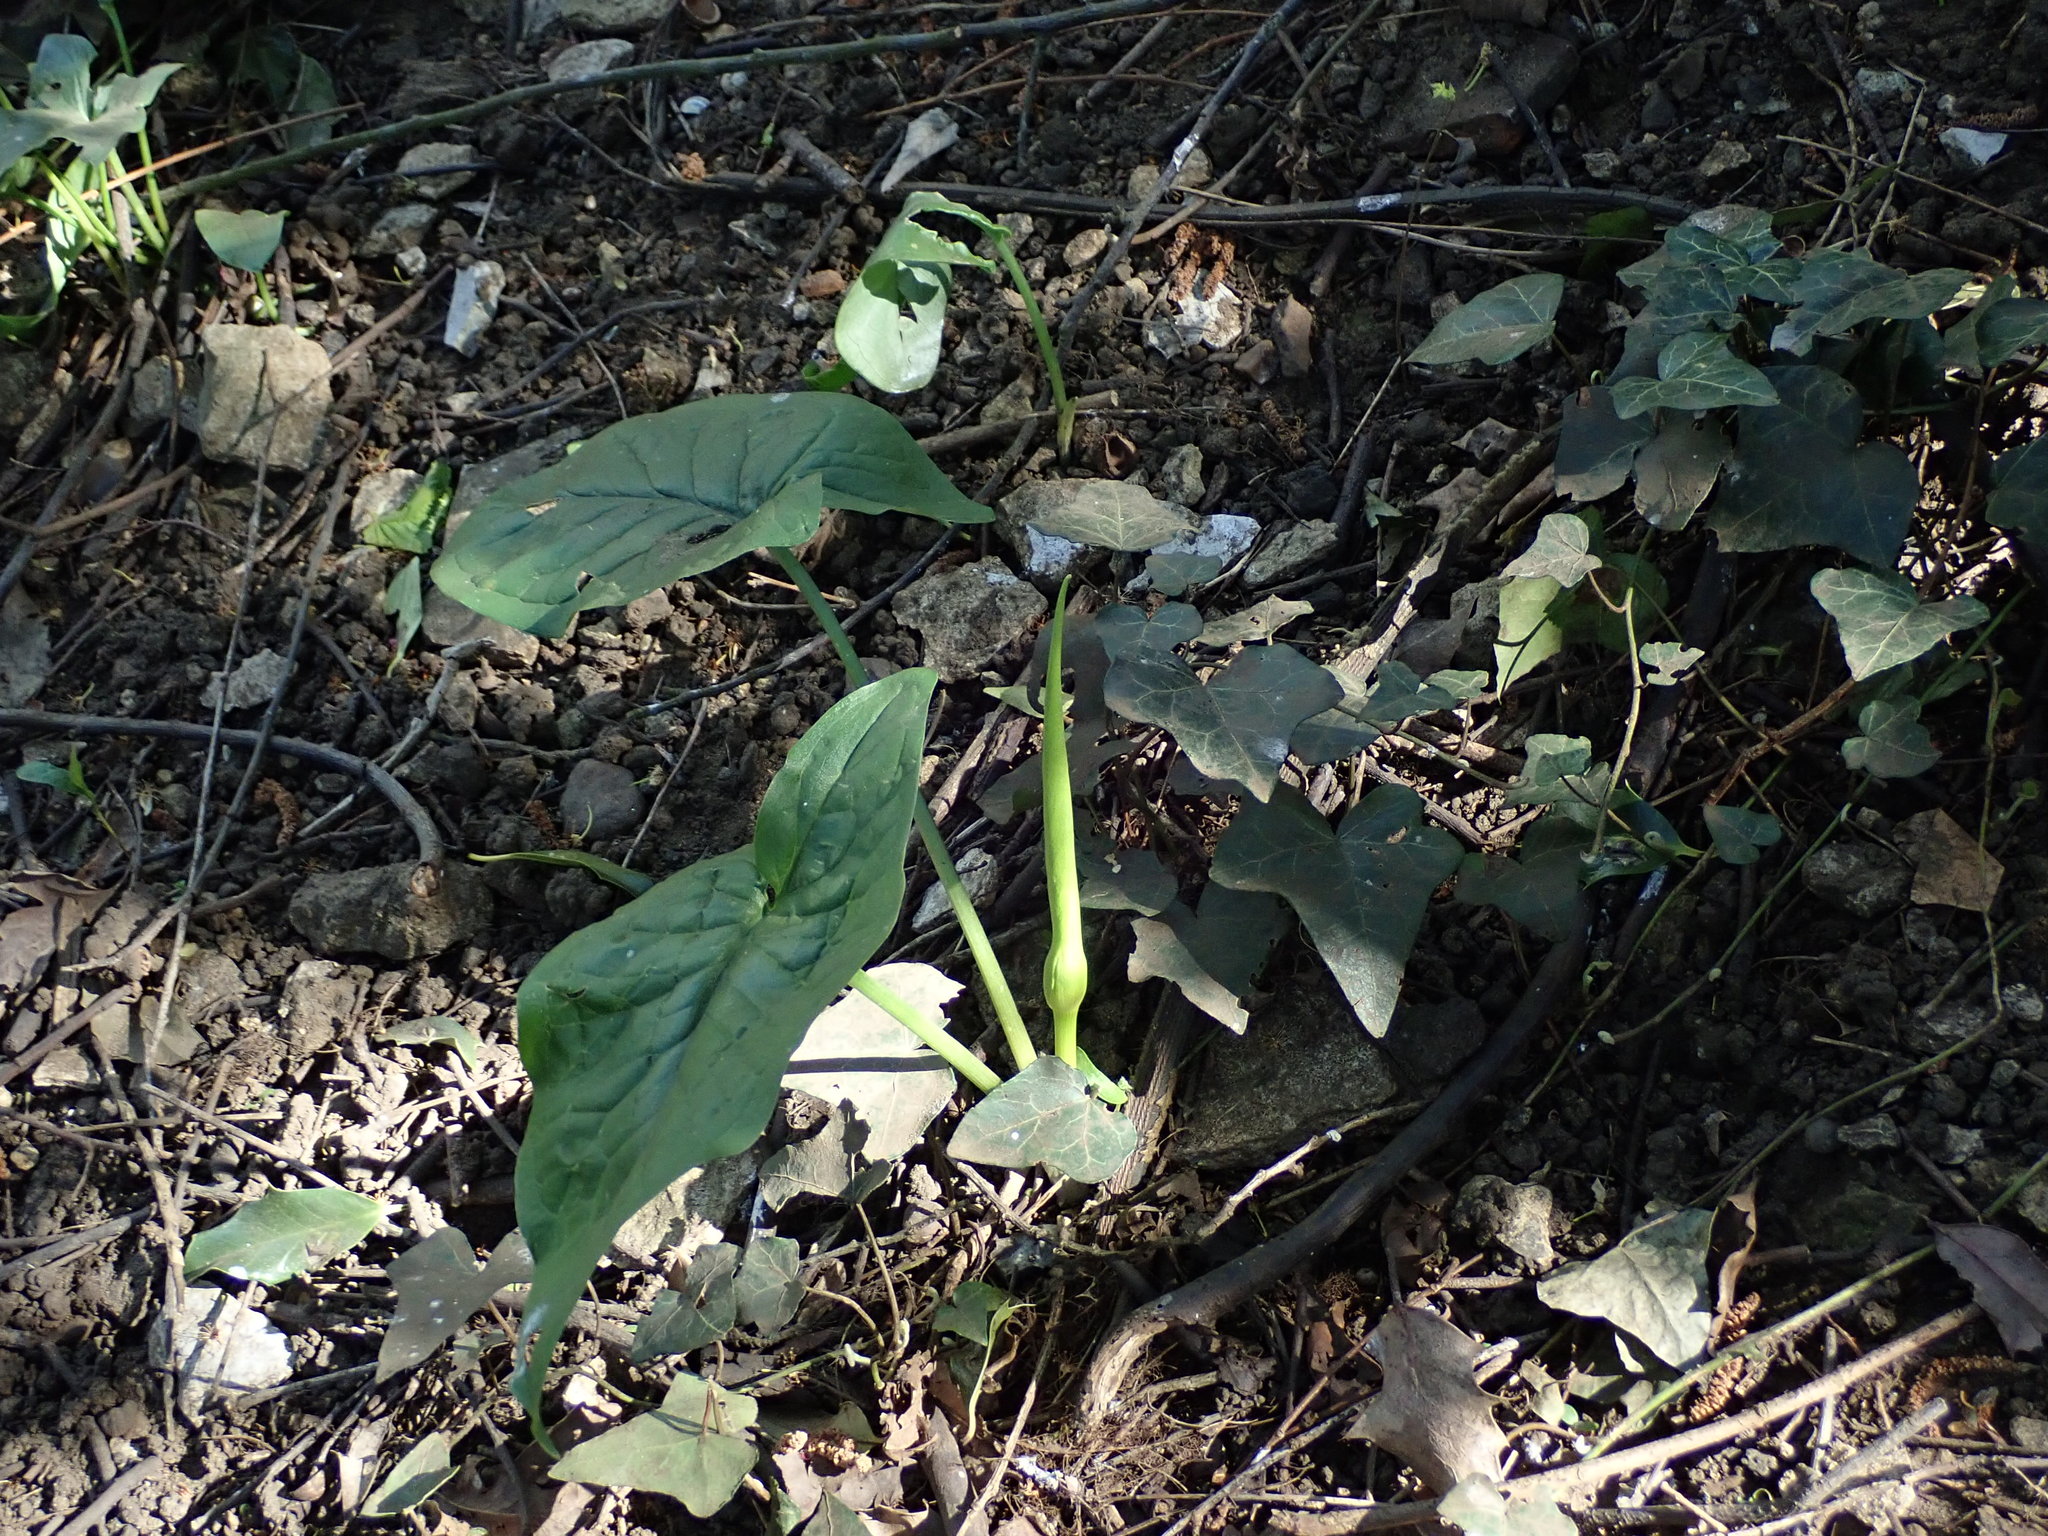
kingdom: Plantae
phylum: Tracheophyta
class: Liliopsida
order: Alismatales
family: Araceae
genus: Arum
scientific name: Arum maculatum
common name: Lords-and-ladies
